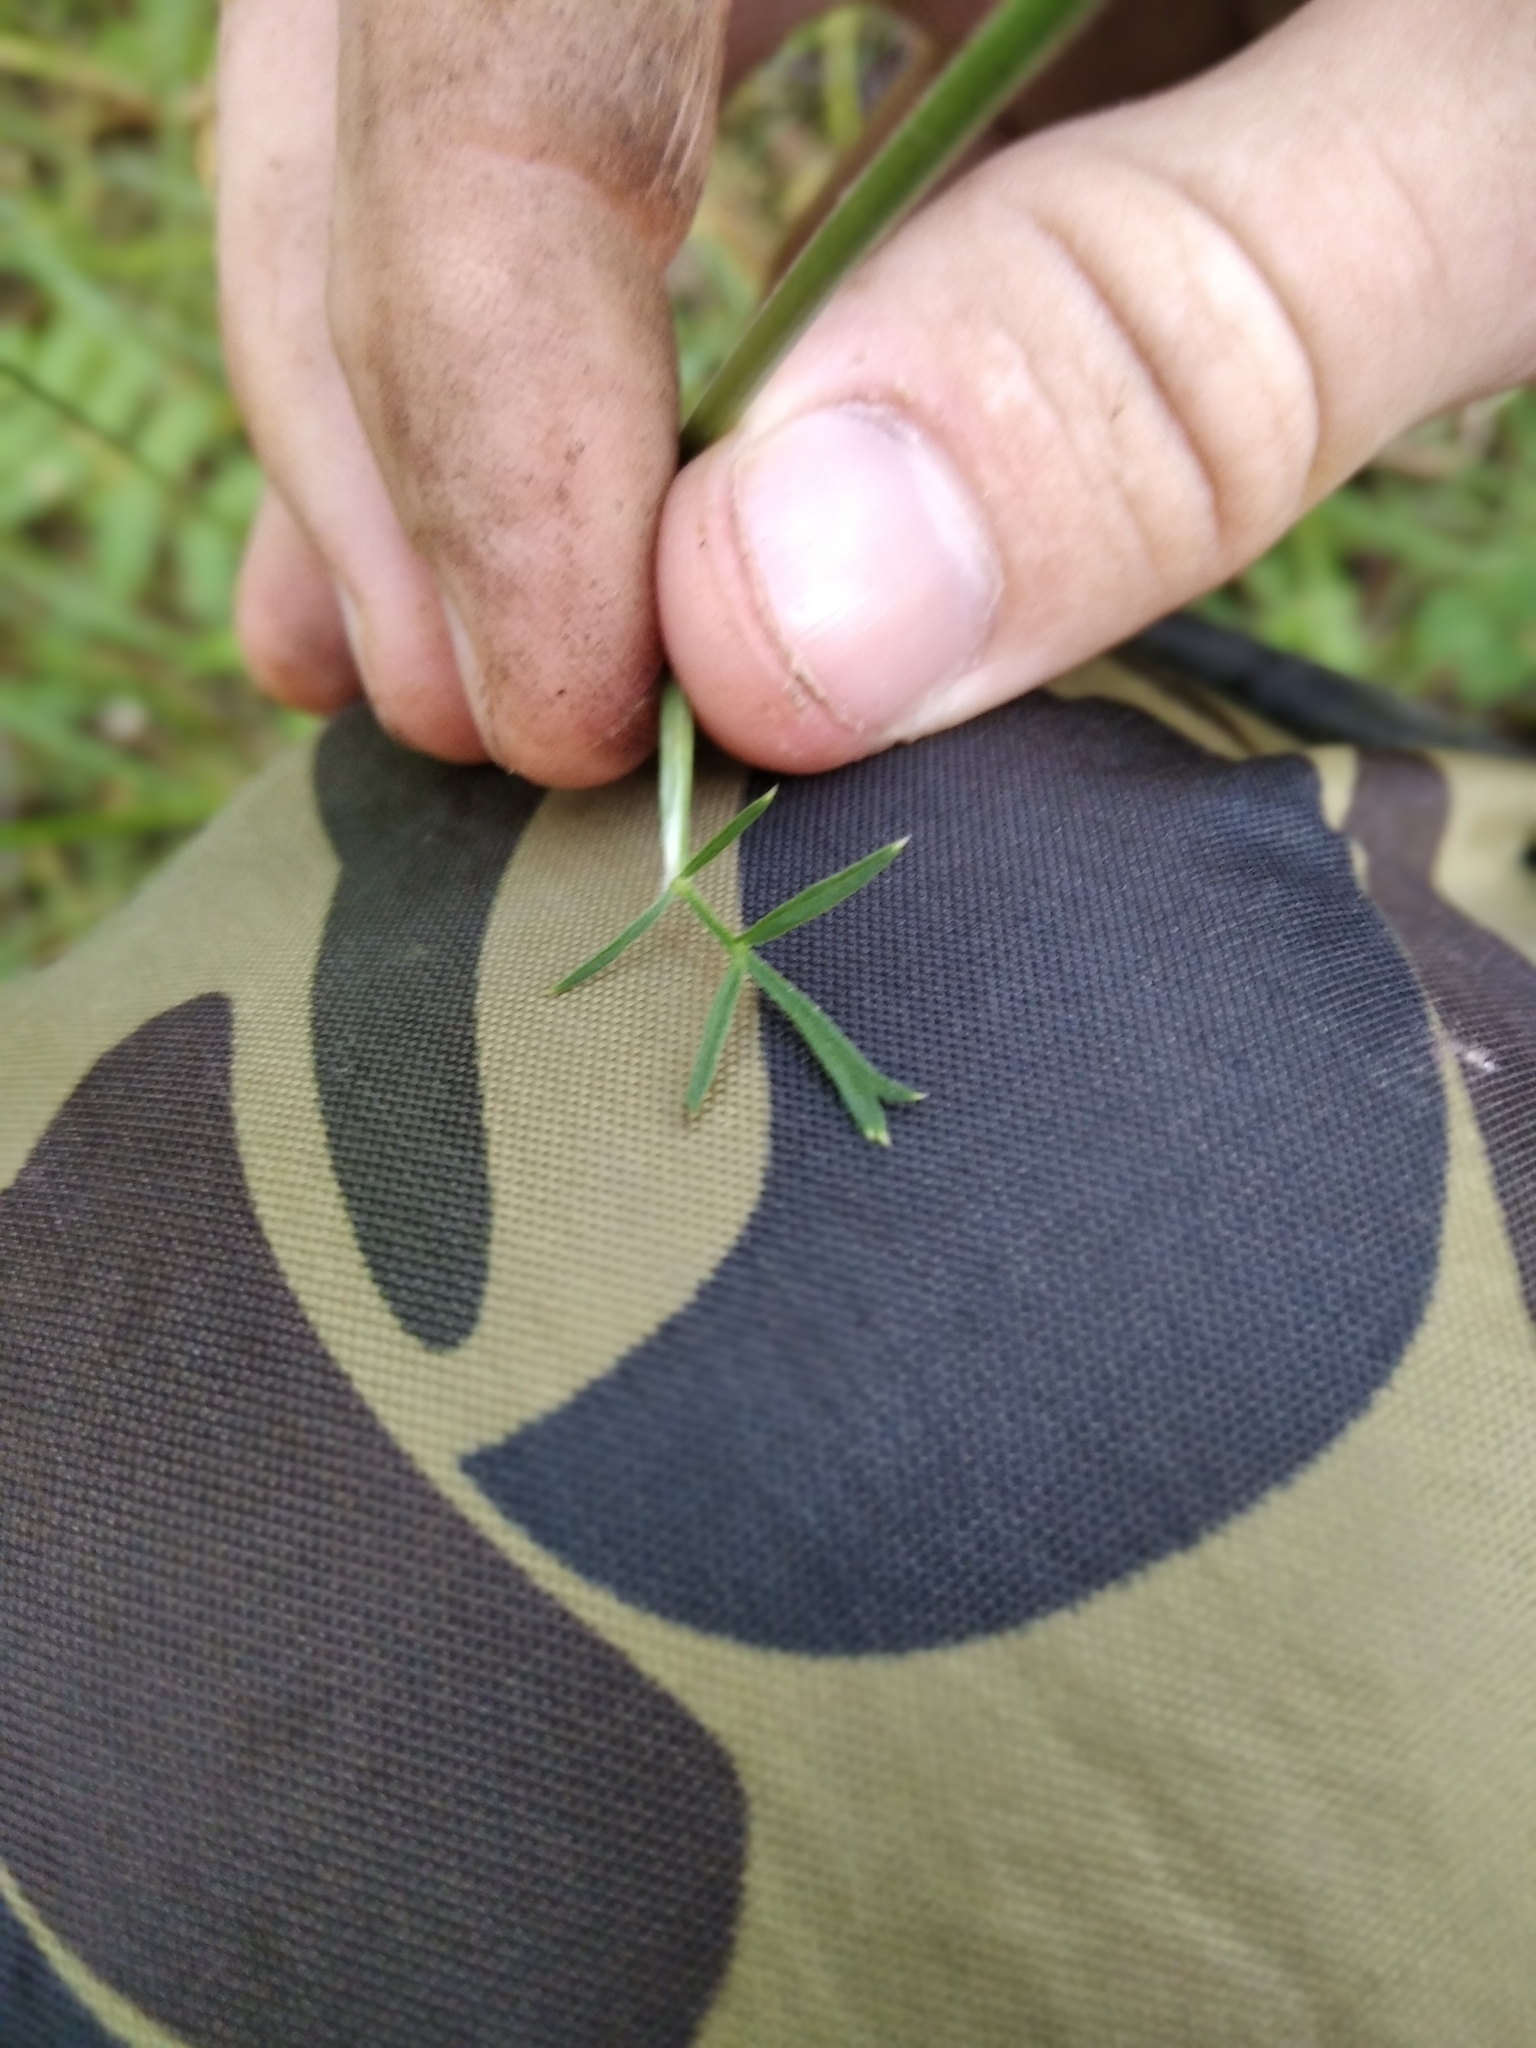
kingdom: Plantae
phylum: Tracheophyta
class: Magnoliopsida
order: Apiales
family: Apiaceae
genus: Pimpinella
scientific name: Pimpinella saxifraga
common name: Burnet-saxifrage
